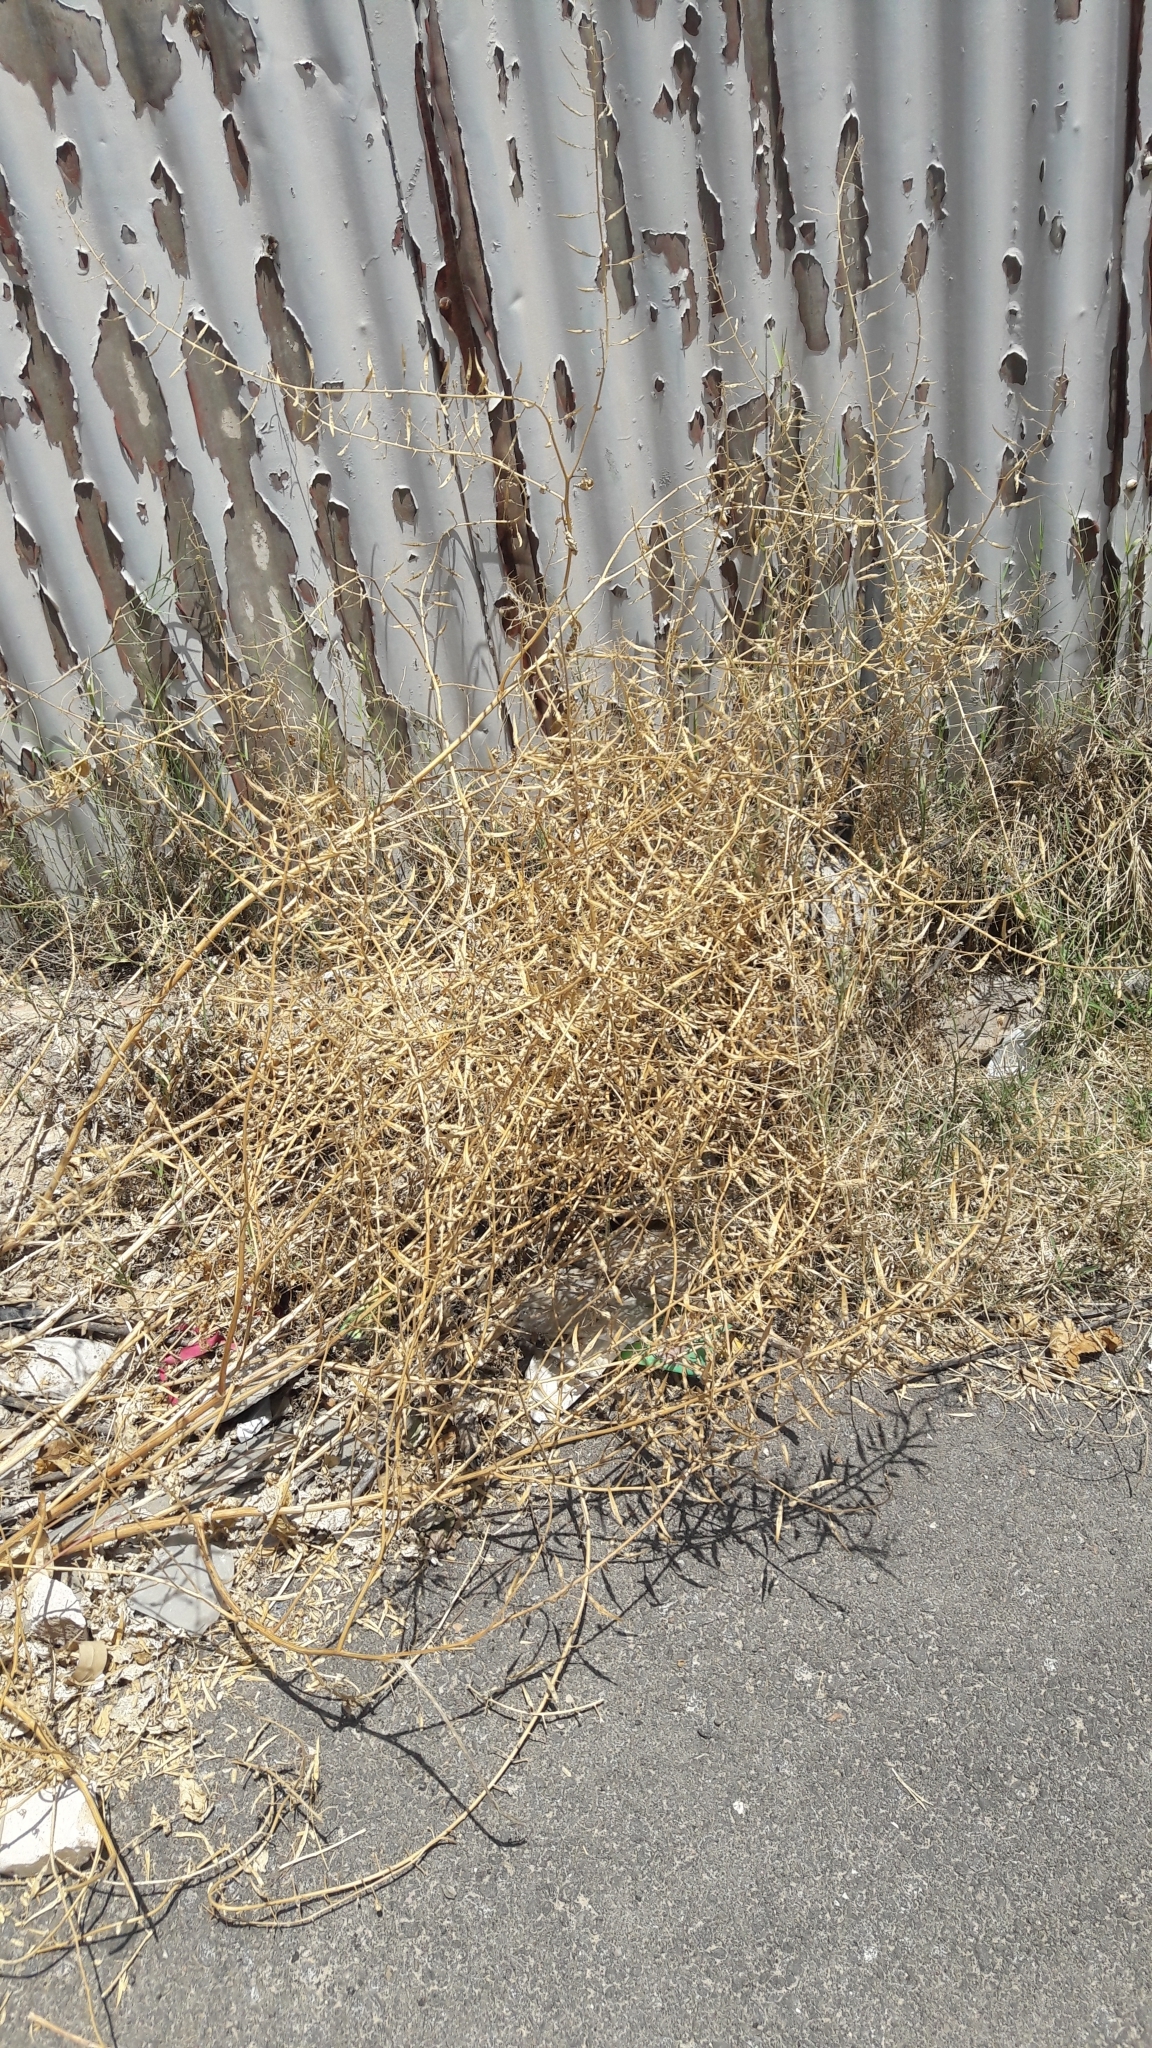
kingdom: Plantae
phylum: Tracheophyta
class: Magnoliopsida
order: Brassicales
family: Brassicaceae
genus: Sinapis
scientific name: Sinapis alba
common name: White mustard
